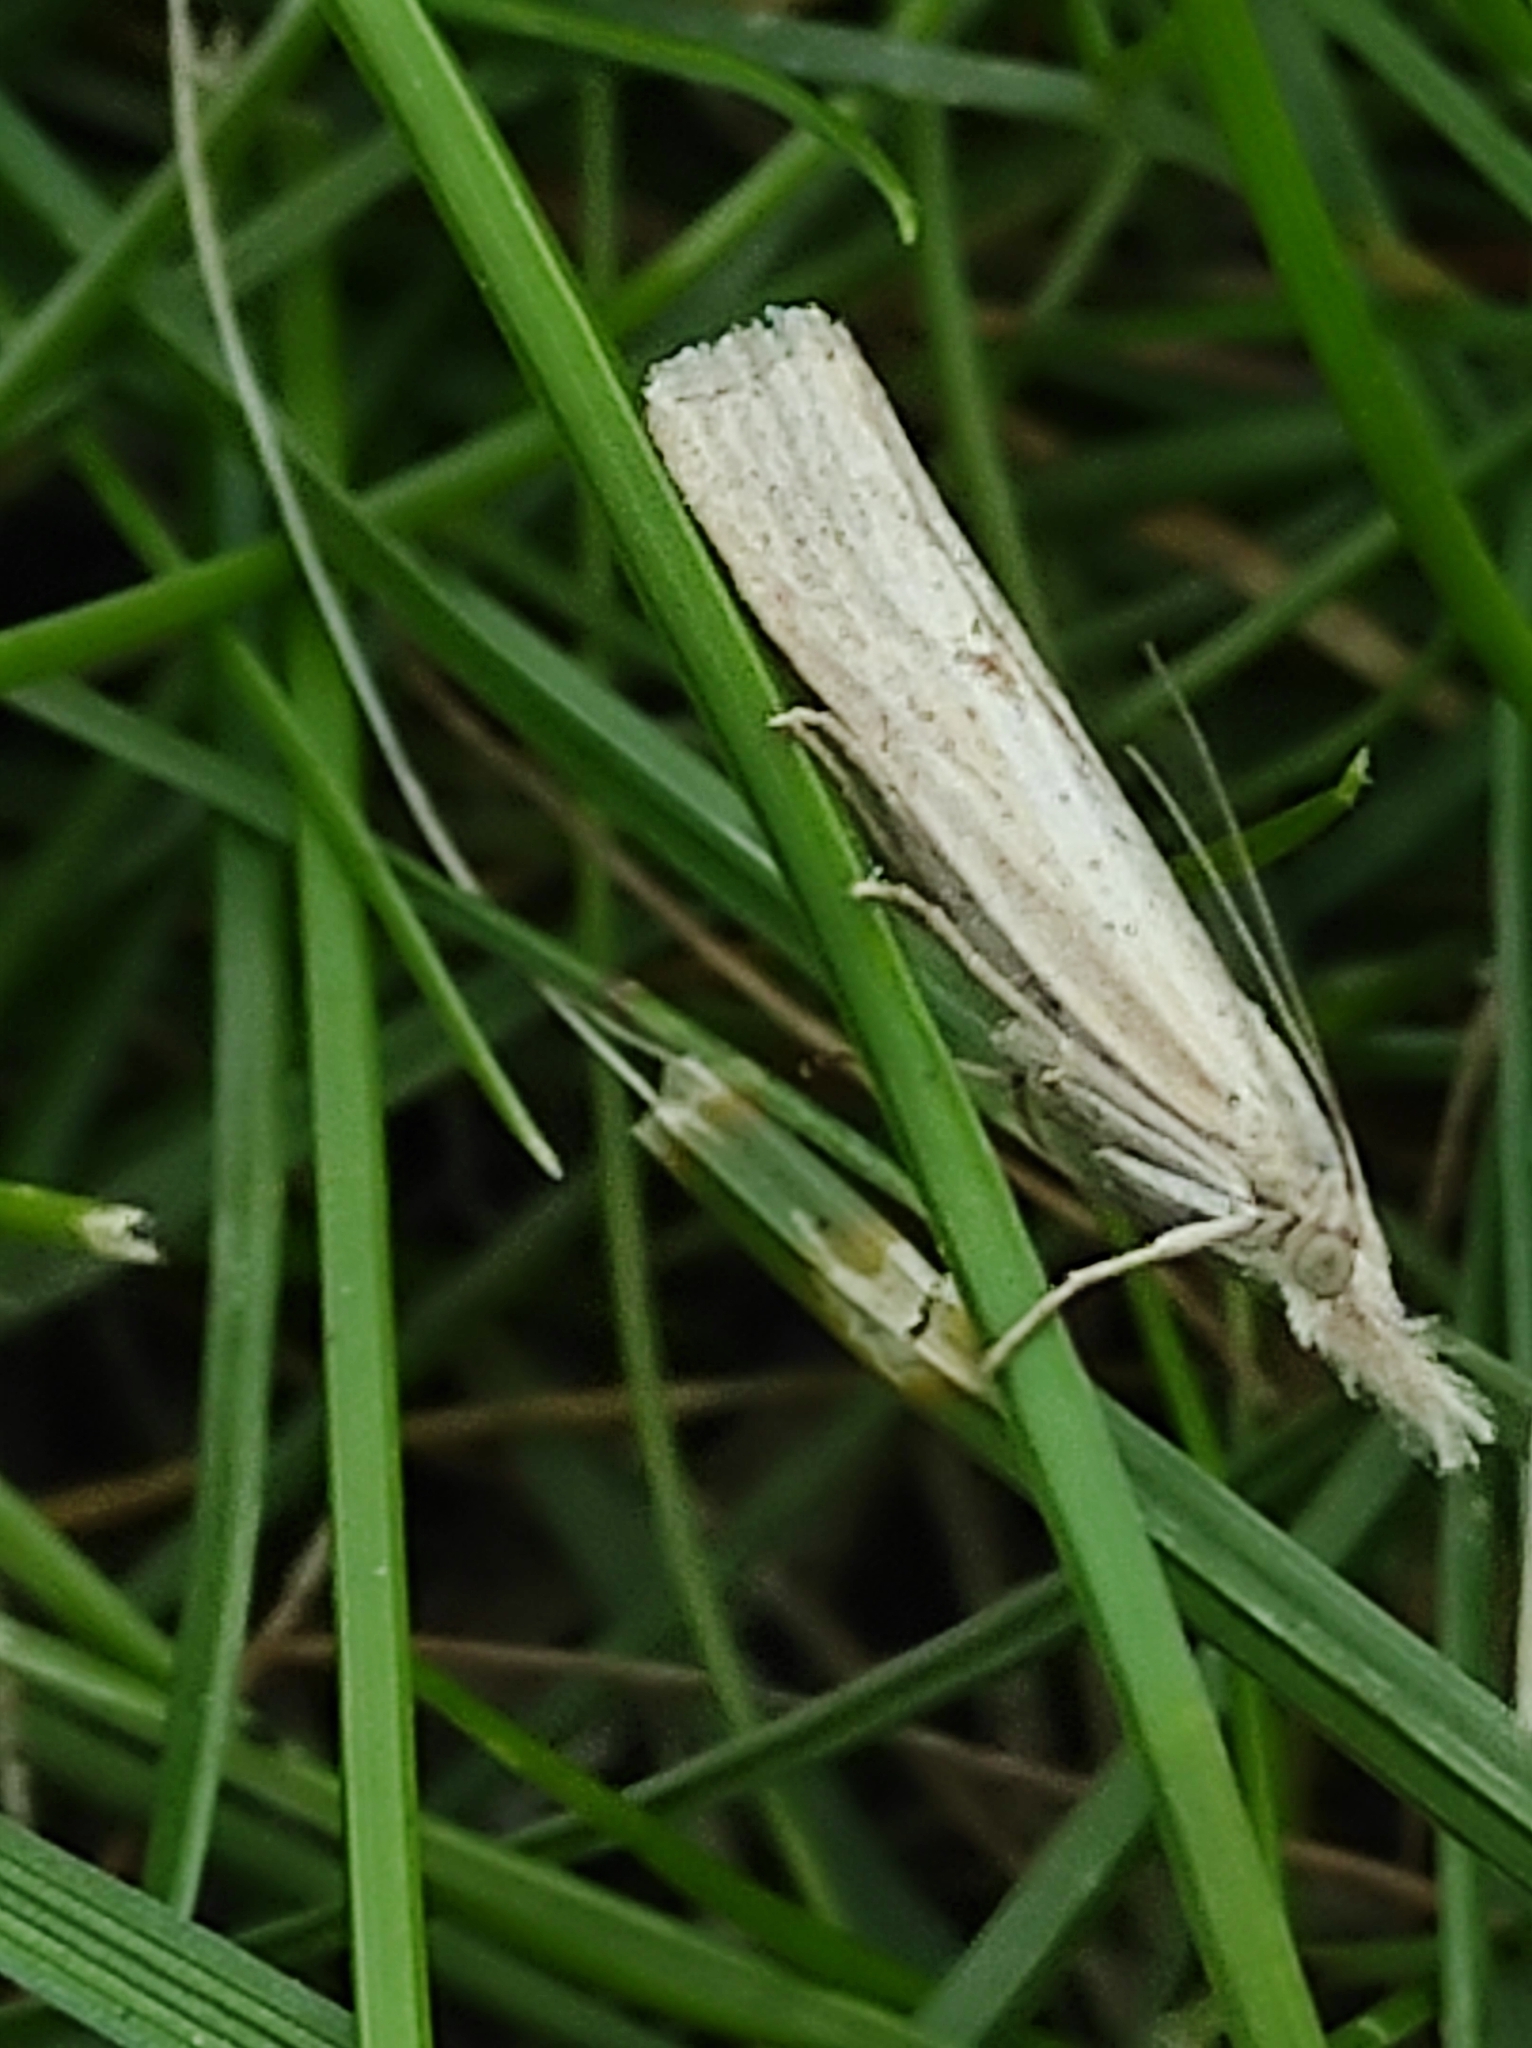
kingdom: Animalia
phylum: Arthropoda
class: Insecta
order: Lepidoptera
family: Crambidae
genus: Agriphila
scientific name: Agriphila inquinatella
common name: Barred grass-veneer
